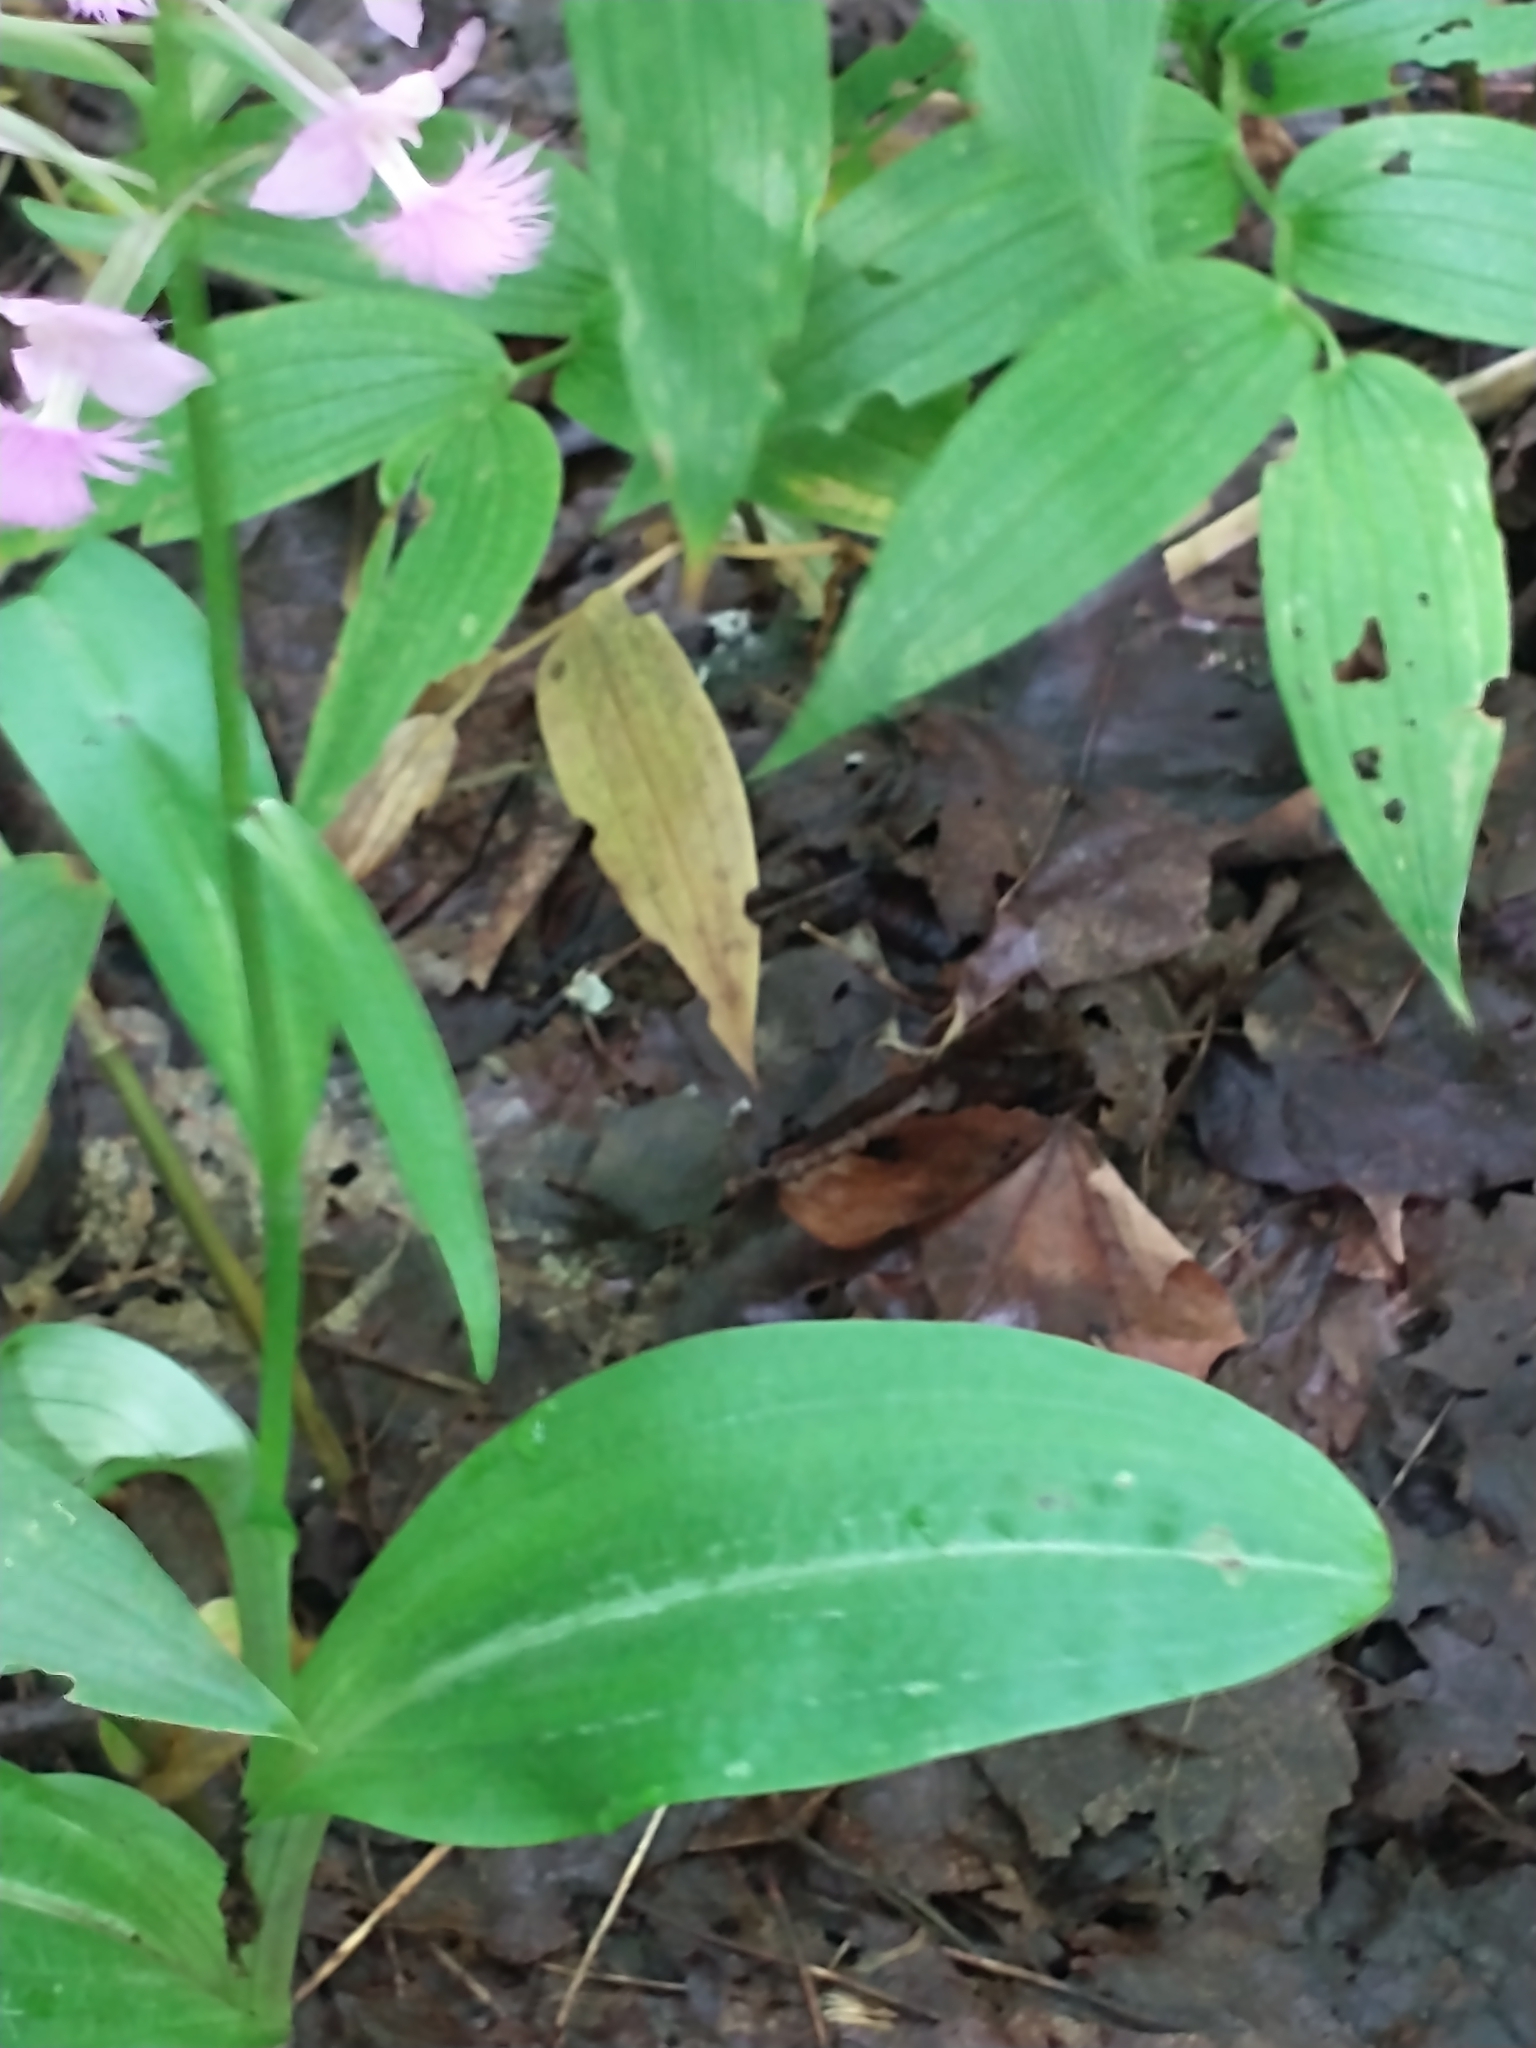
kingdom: Plantae
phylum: Tracheophyta
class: Liliopsida
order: Asparagales
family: Orchidaceae
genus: Platanthera
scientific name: Platanthera grandiflora
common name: Greater purple fringed orchid
